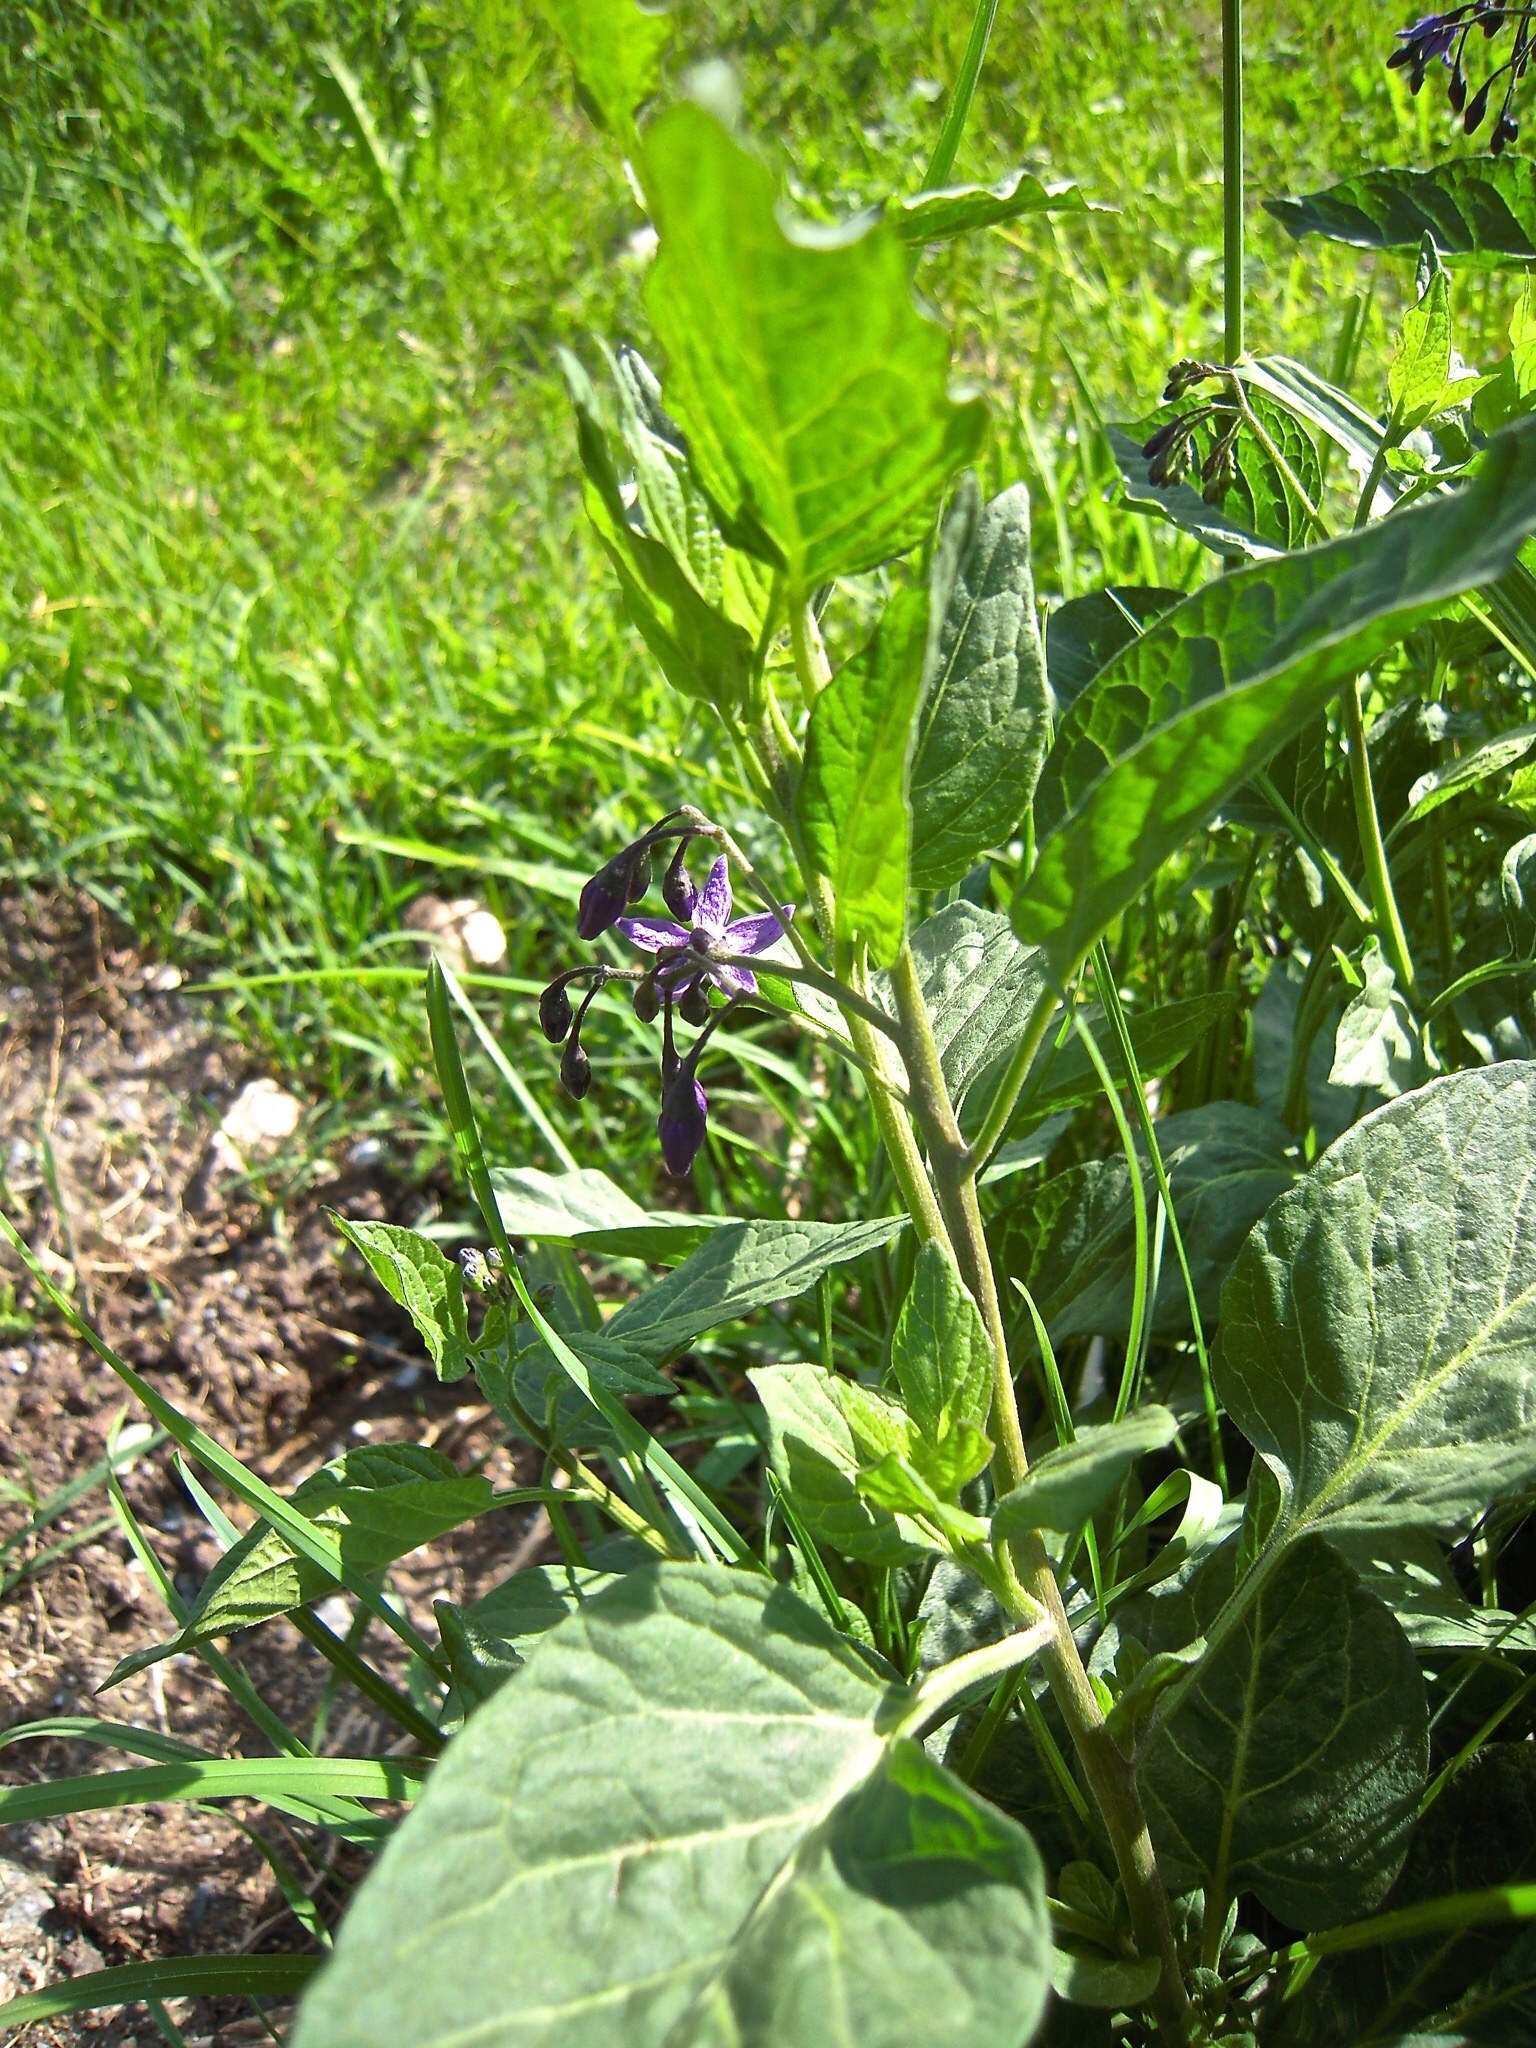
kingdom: Plantae
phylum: Tracheophyta
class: Magnoliopsida
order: Solanales
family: Solanaceae
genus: Solanum
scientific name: Solanum dulcamara
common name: Climbing nightshade
